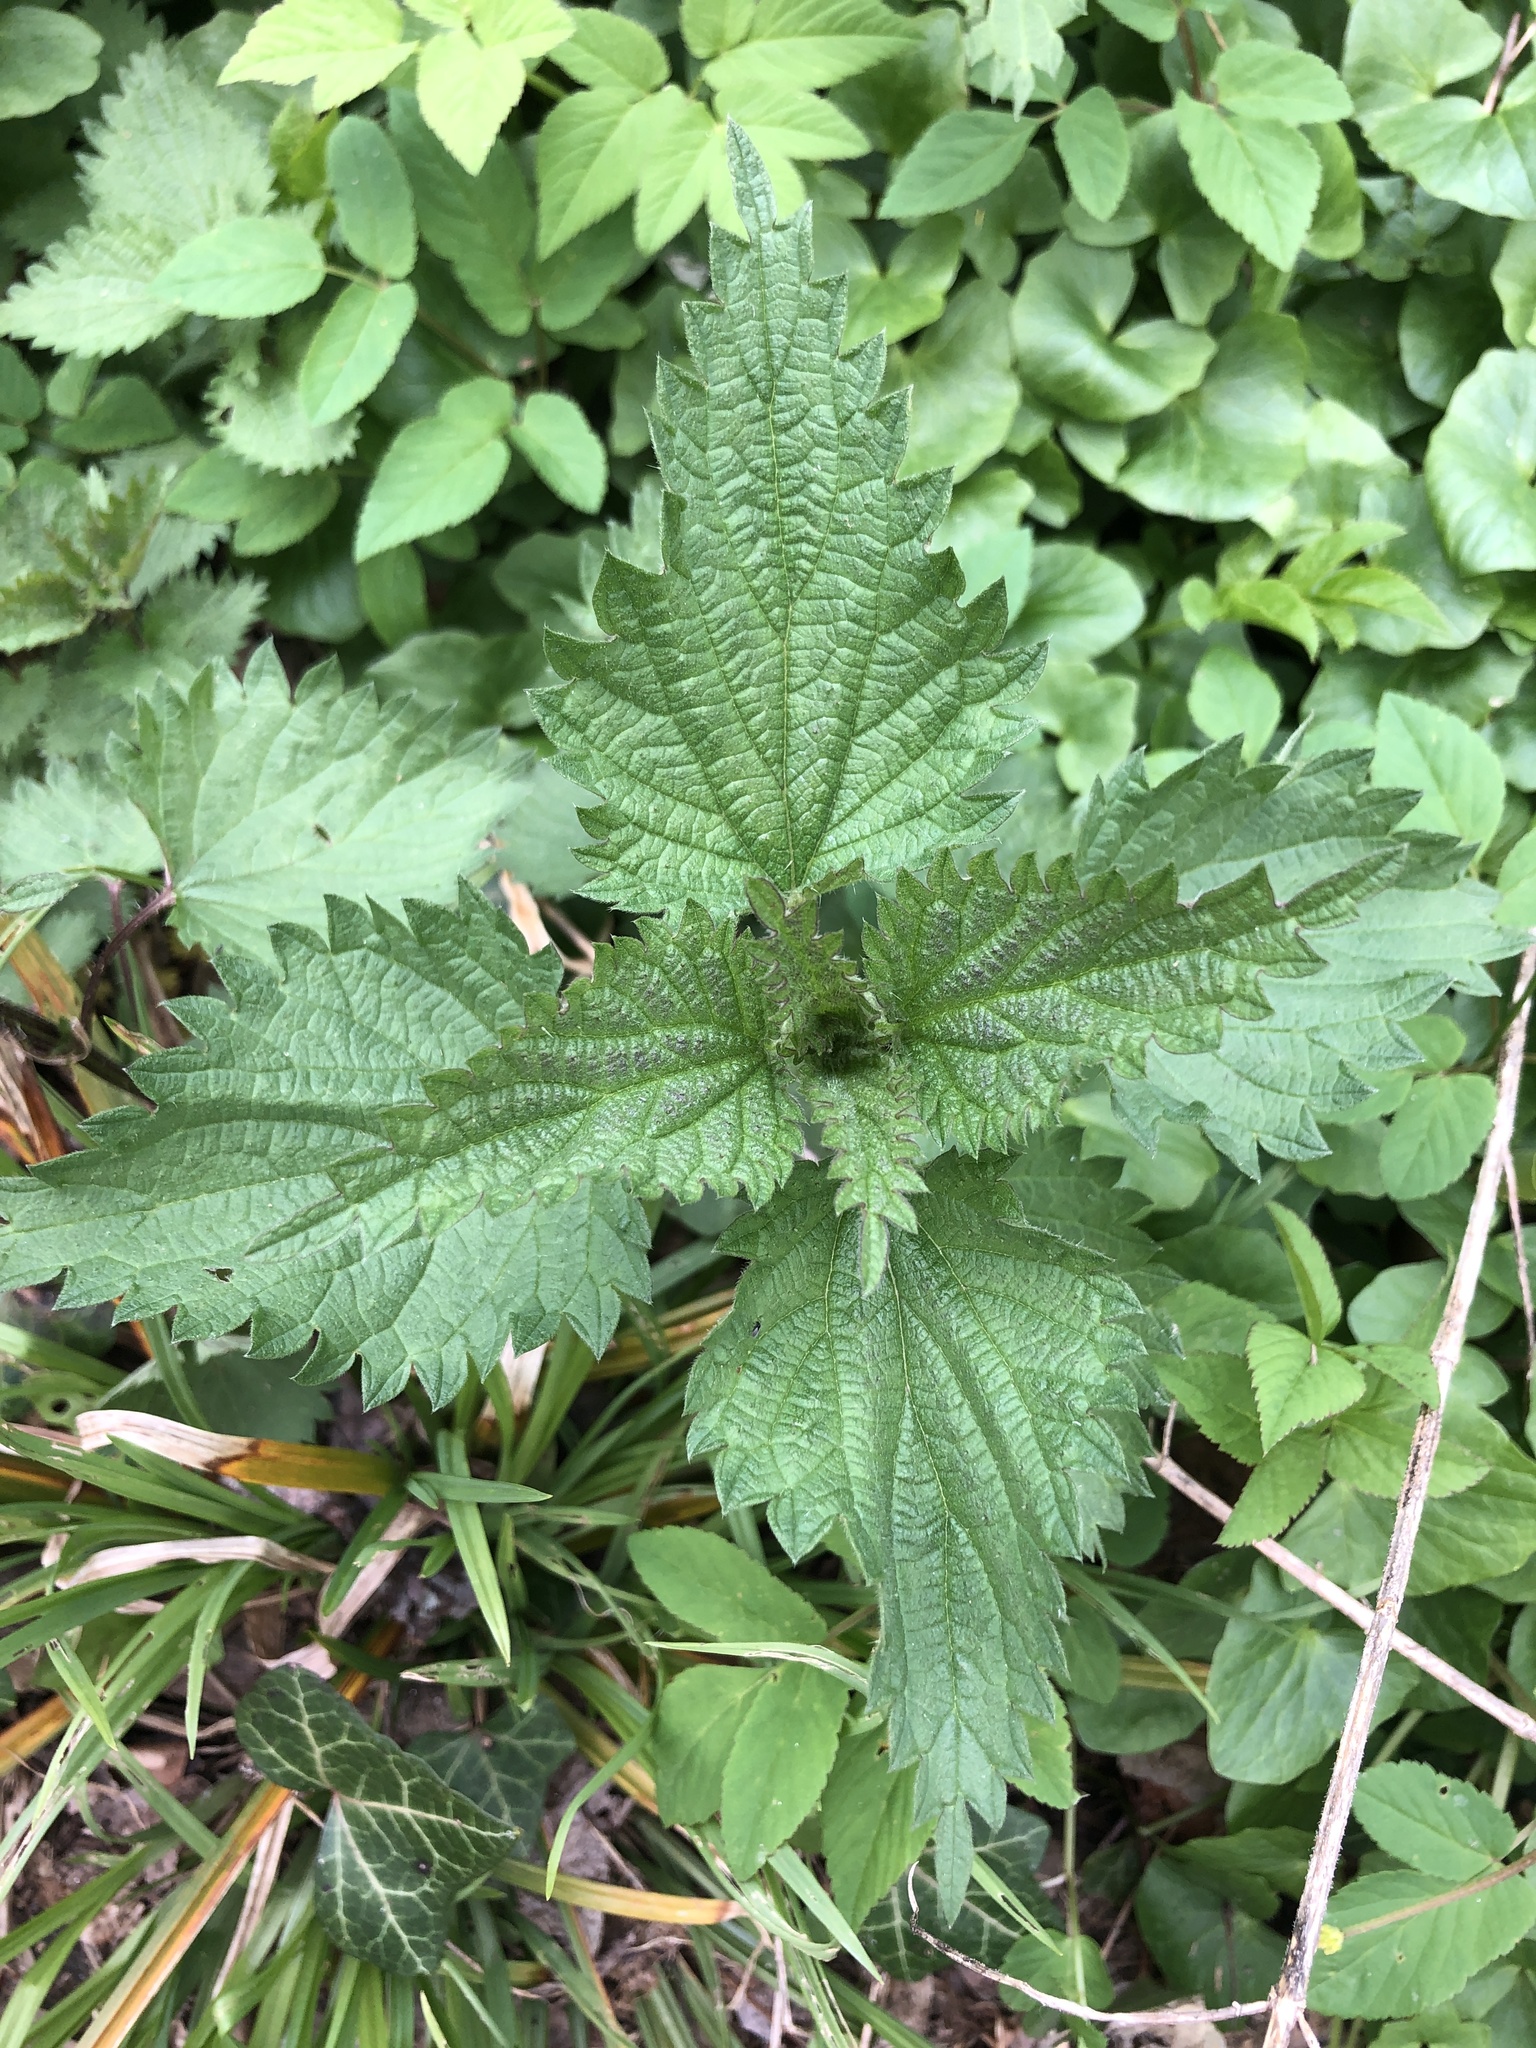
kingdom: Plantae
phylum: Tracheophyta
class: Magnoliopsida
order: Rosales
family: Urticaceae
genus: Urtica
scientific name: Urtica dioica
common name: Common nettle
